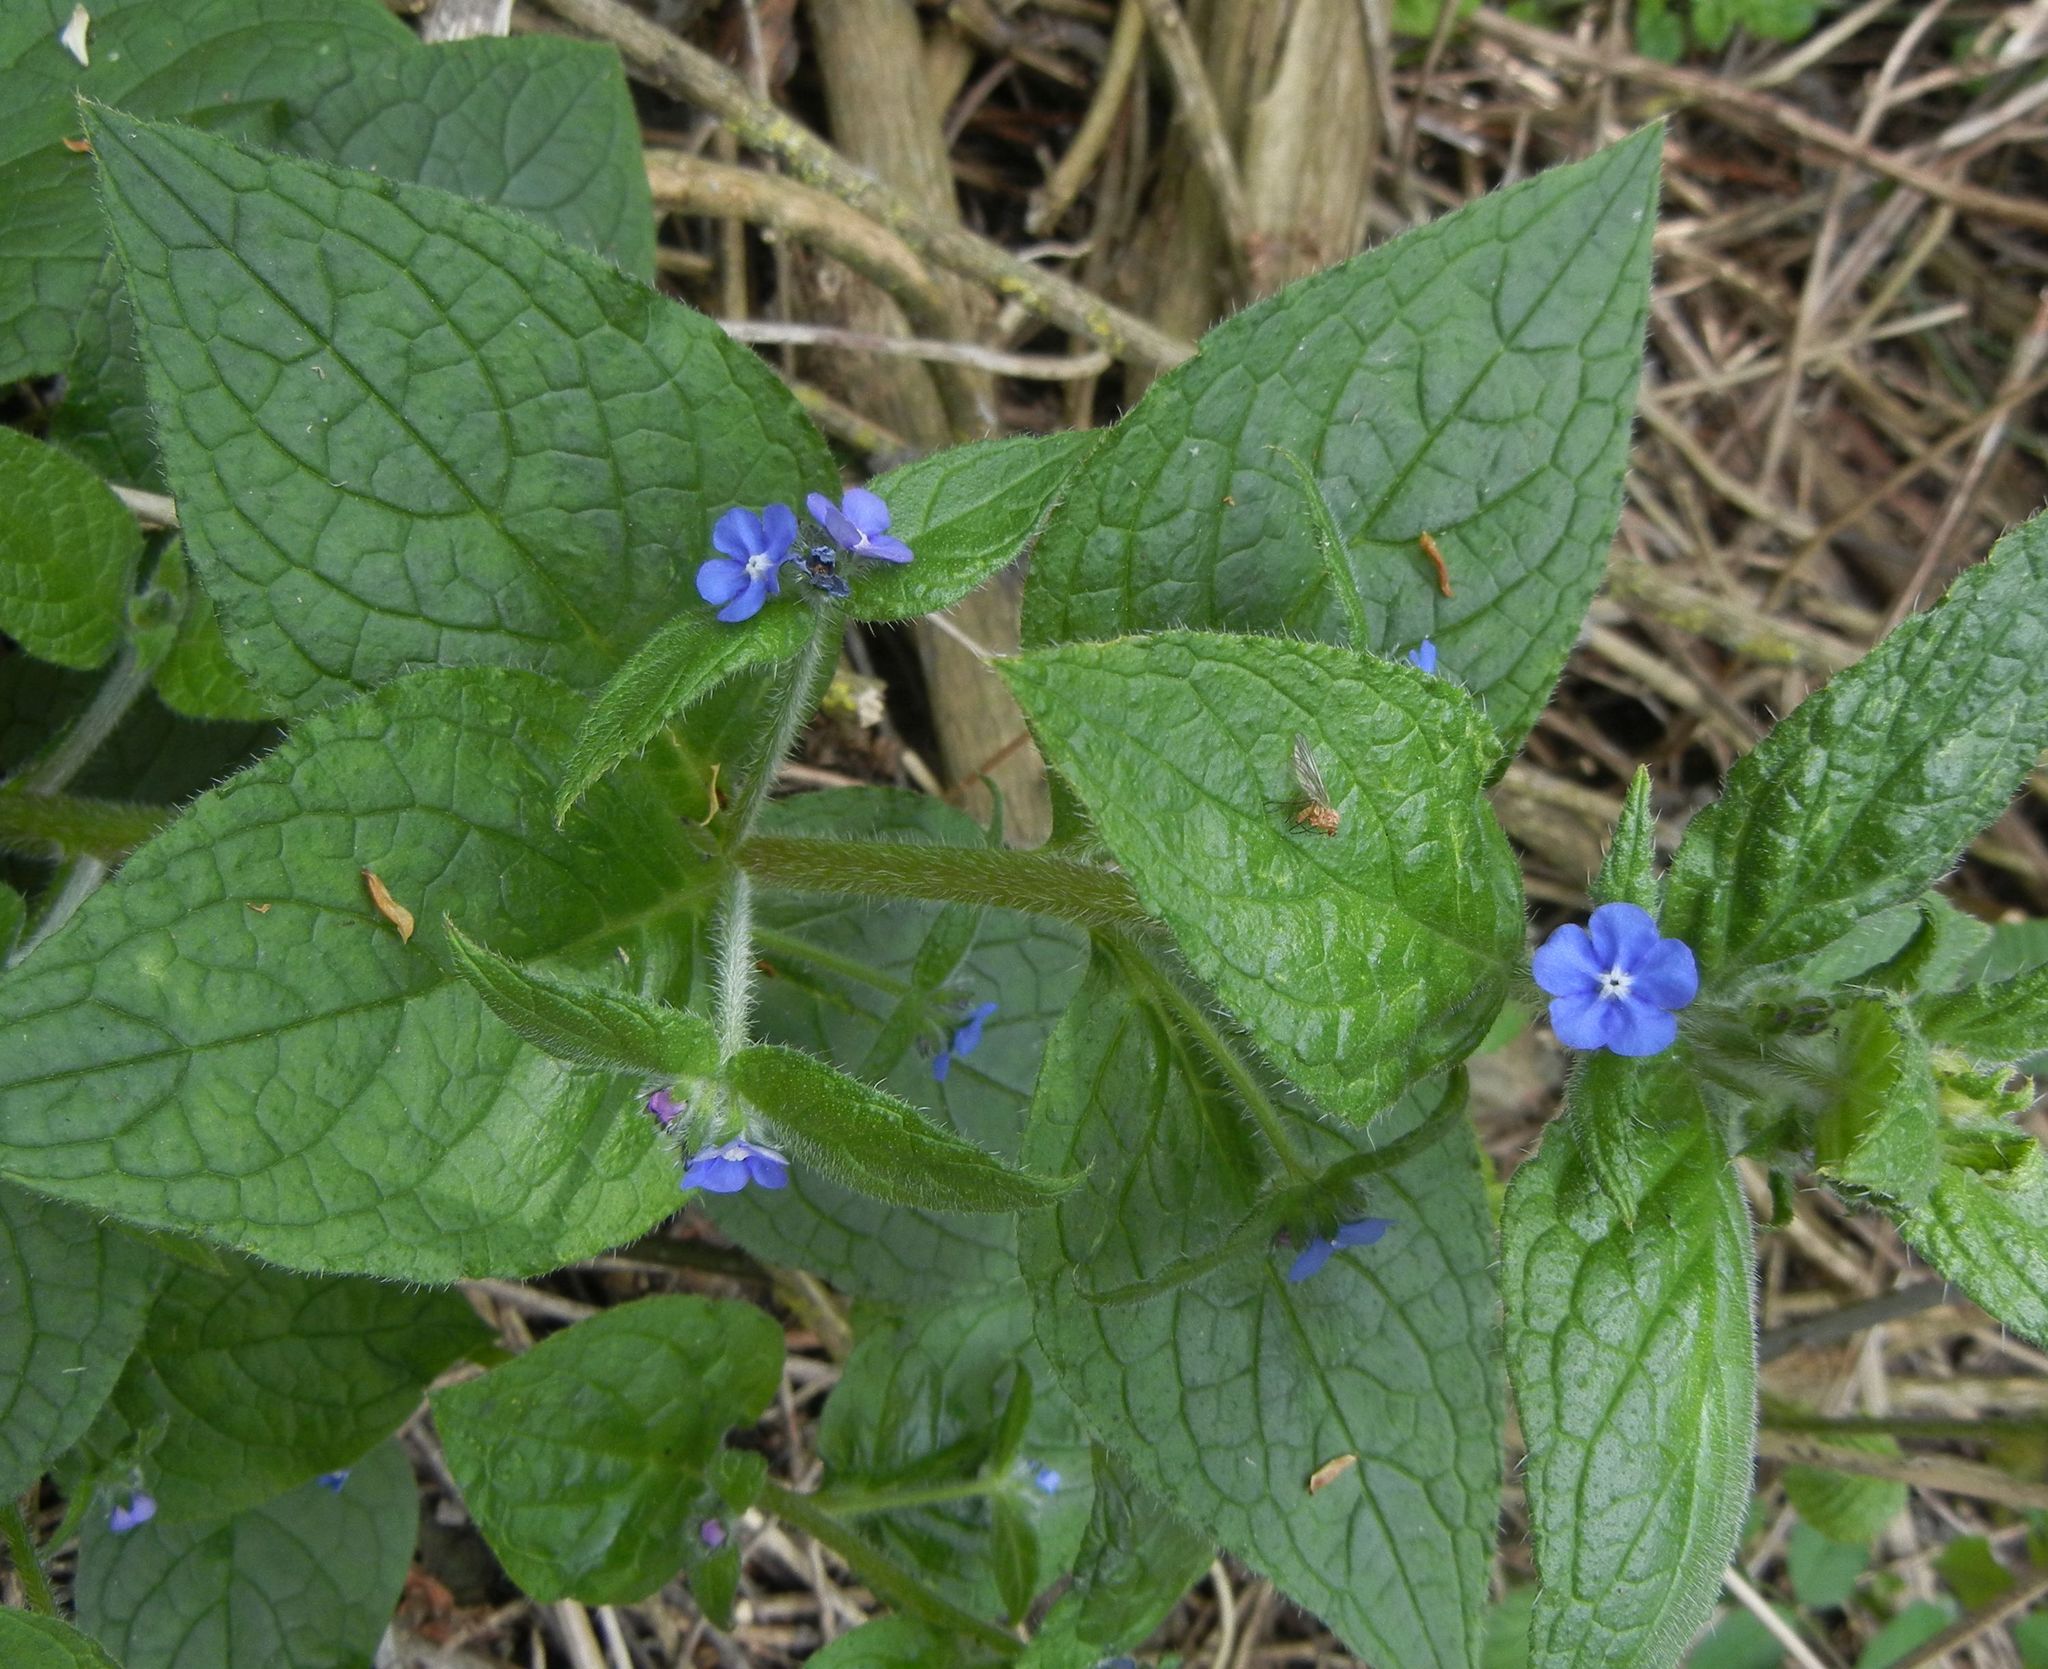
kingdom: Plantae
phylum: Tracheophyta
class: Magnoliopsida
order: Boraginales
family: Boraginaceae
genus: Pentaglottis
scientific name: Pentaglottis sempervirens
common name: Green alkanet
